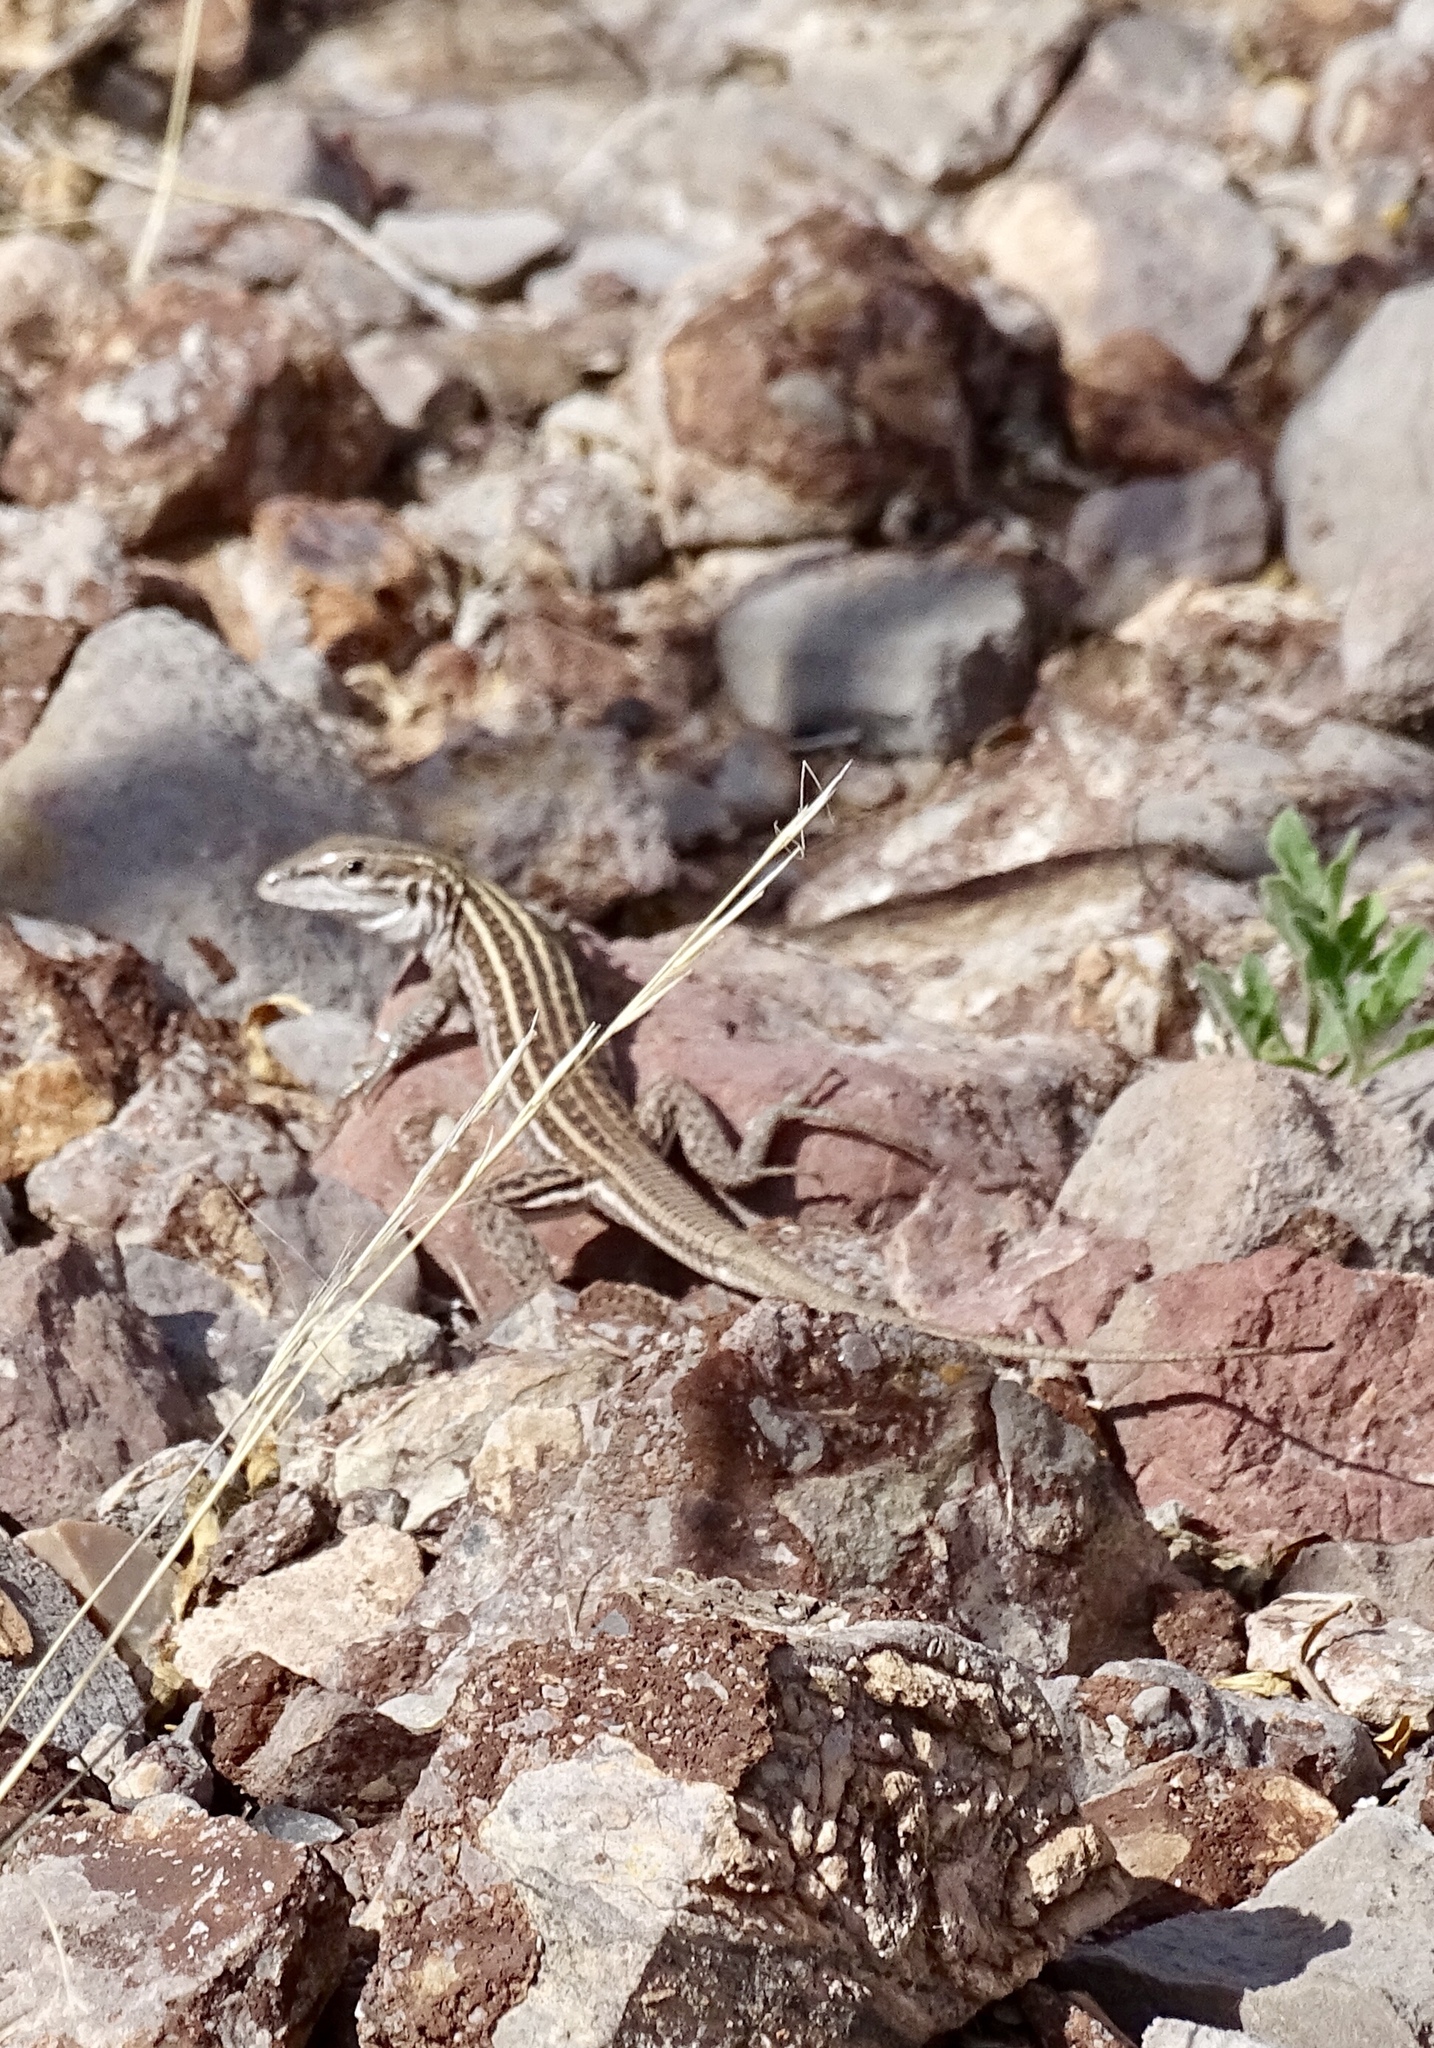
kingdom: Animalia
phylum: Chordata
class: Squamata
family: Teiidae
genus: Aspidoscelis
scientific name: Aspidoscelis exsanguis
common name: Chihuahuan spotted whiptail
